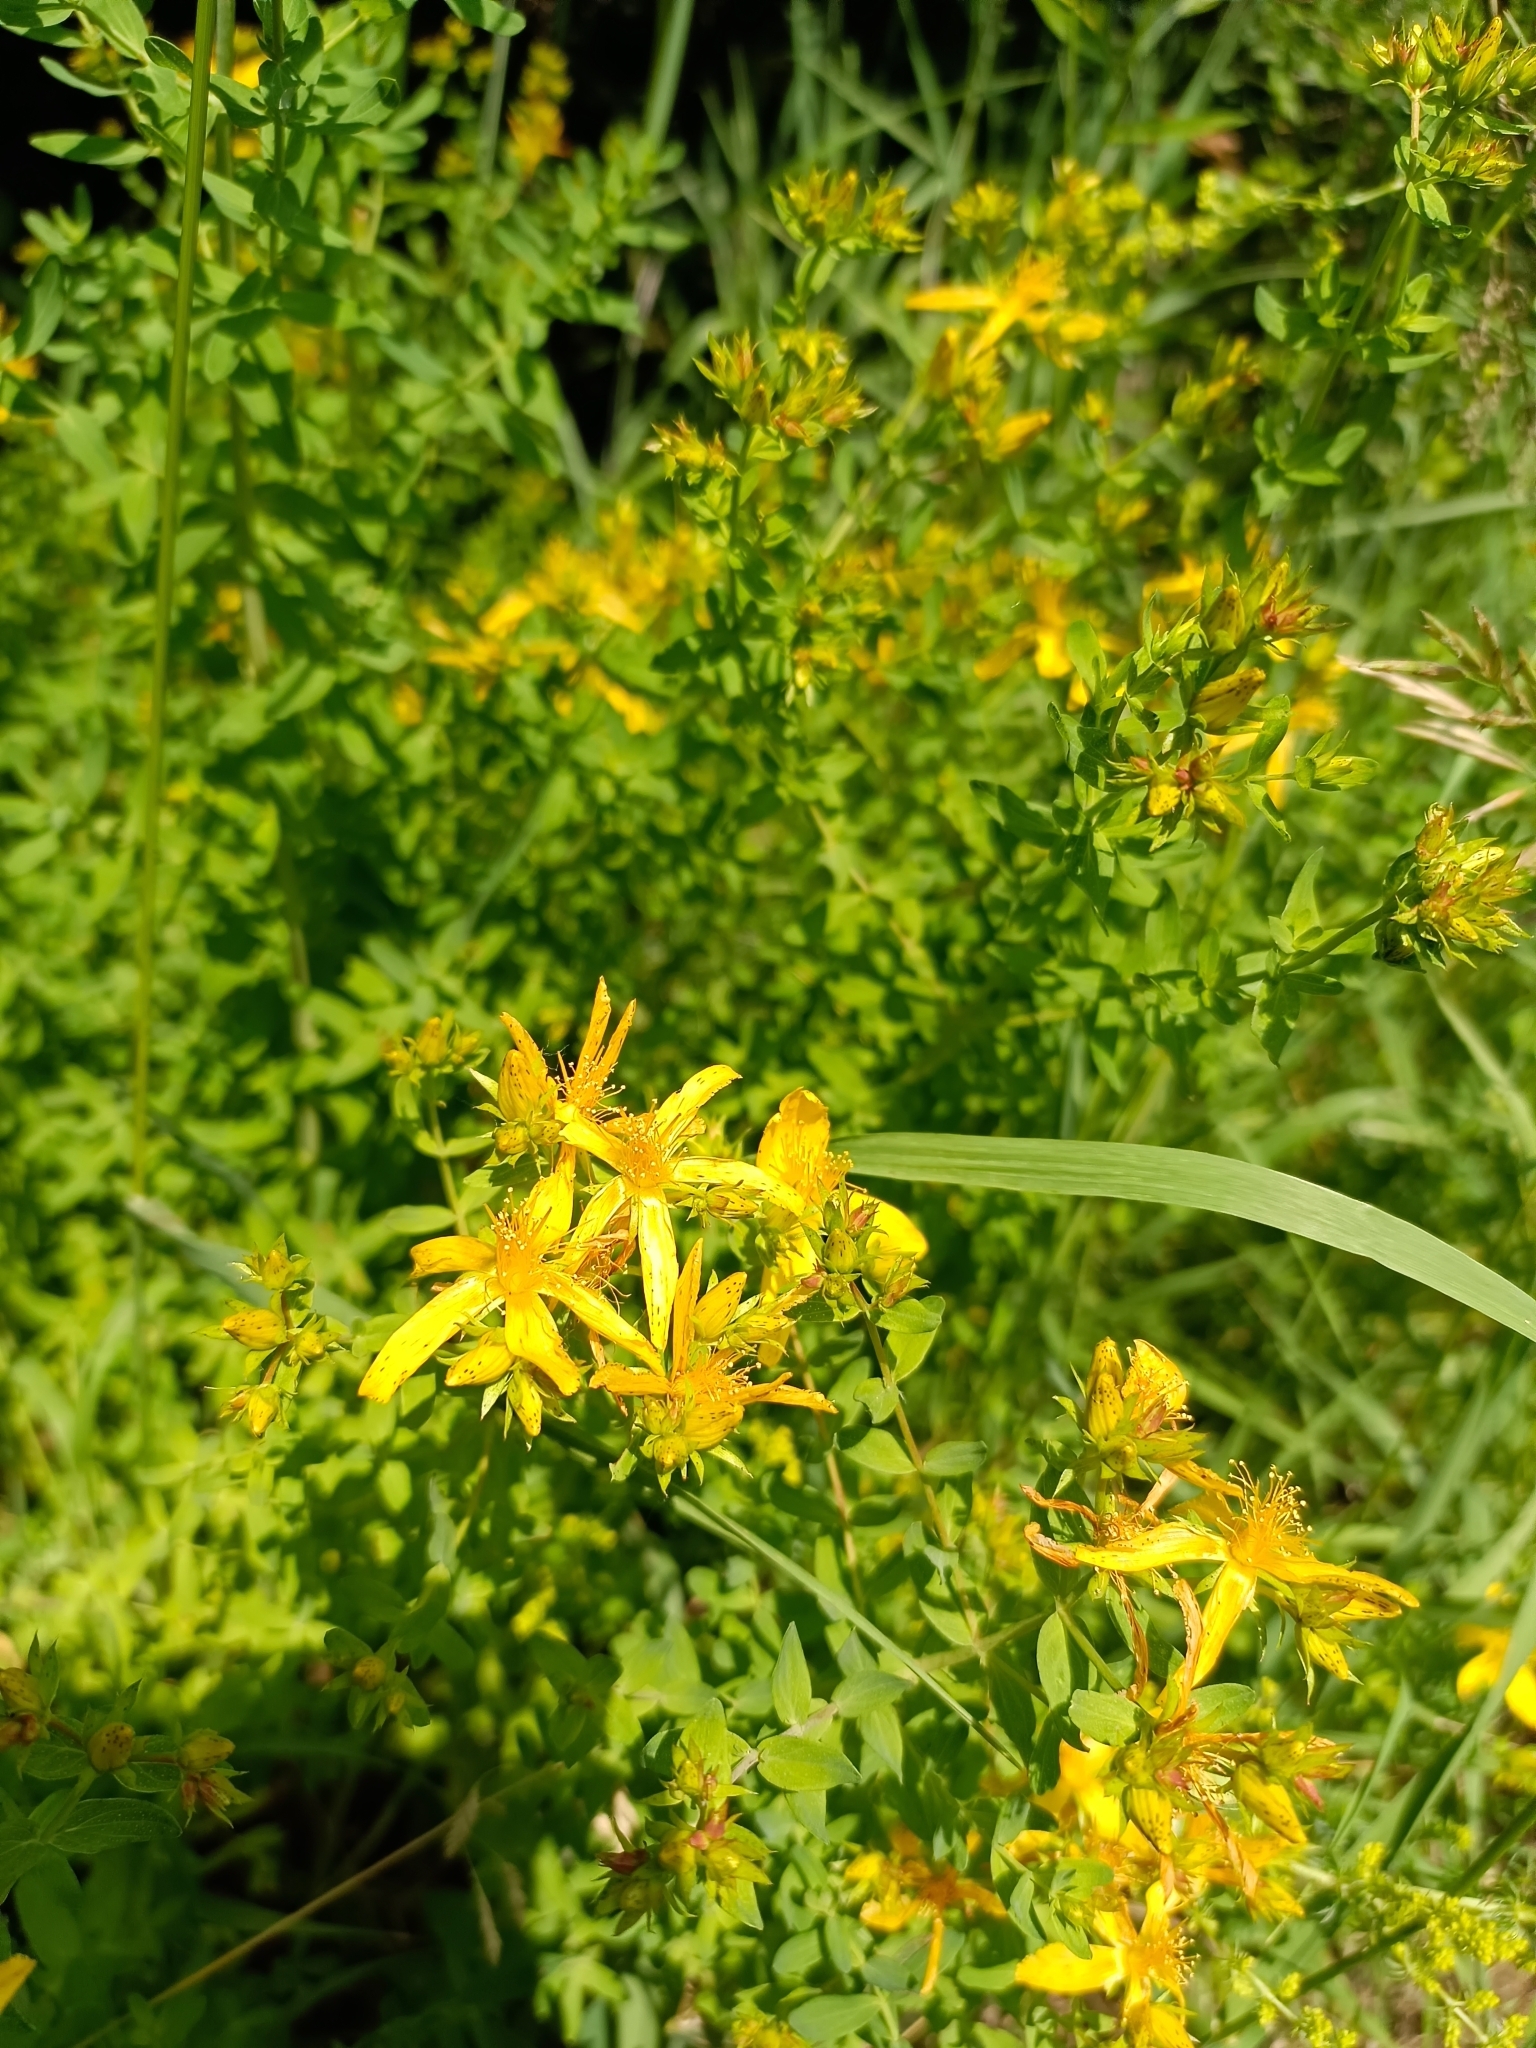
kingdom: Plantae
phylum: Tracheophyta
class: Magnoliopsida
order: Malpighiales
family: Hypericaceae
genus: Hypericum
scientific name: Hypericum perforatum
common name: Common st. johnswort
